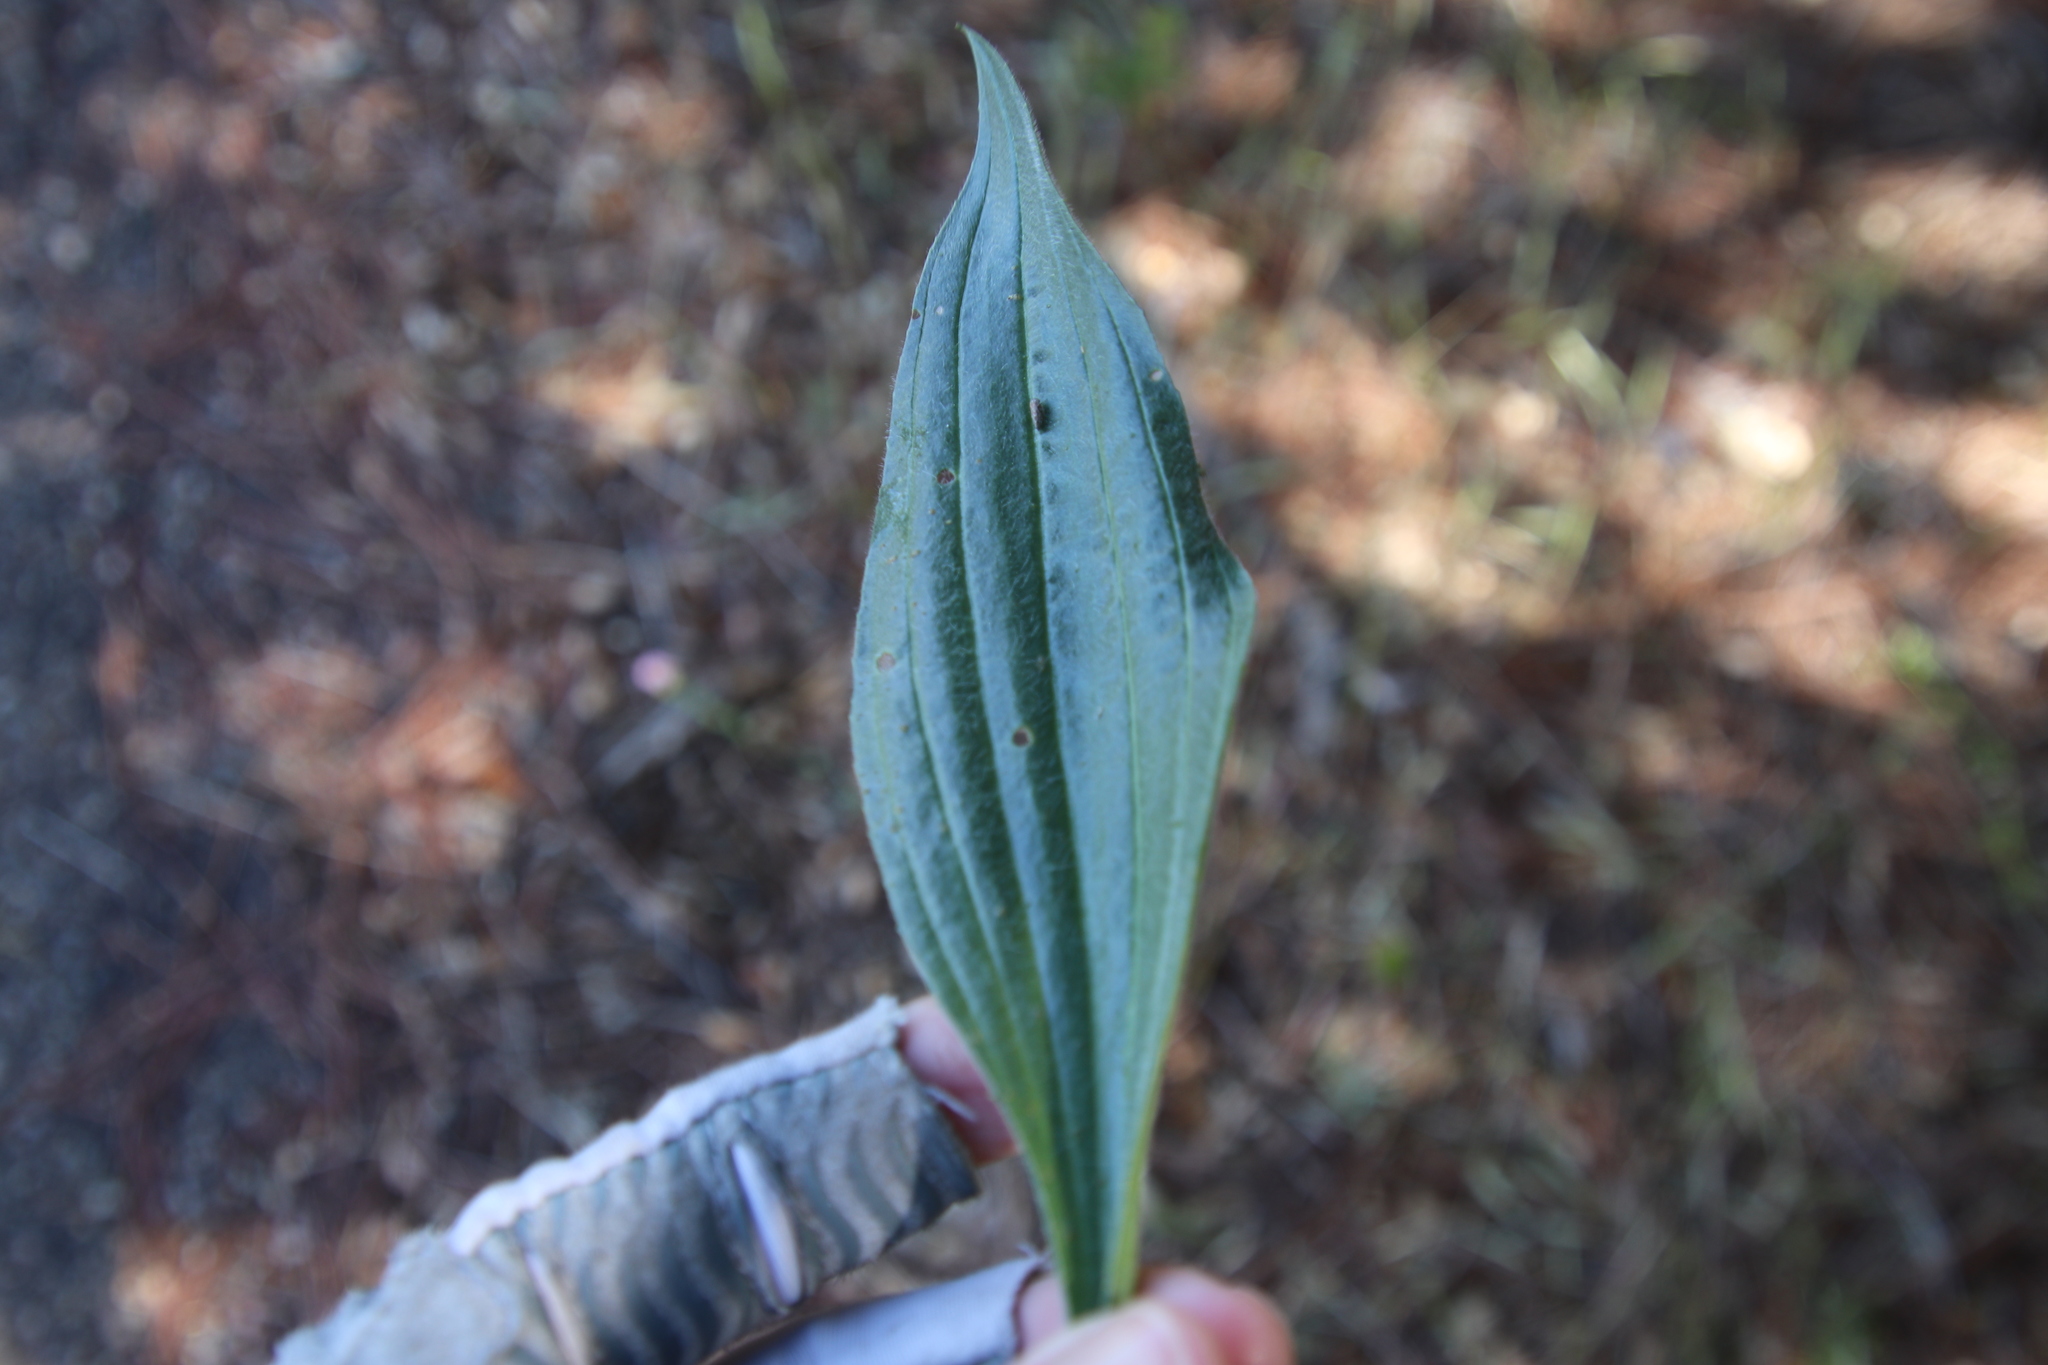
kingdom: Plantae
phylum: Tracheophyta
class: Magnoliopsida
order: Lamiales
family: Plantaginaceae
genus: Plantago
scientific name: Plantago lanceolata
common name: Ribwort plantain
